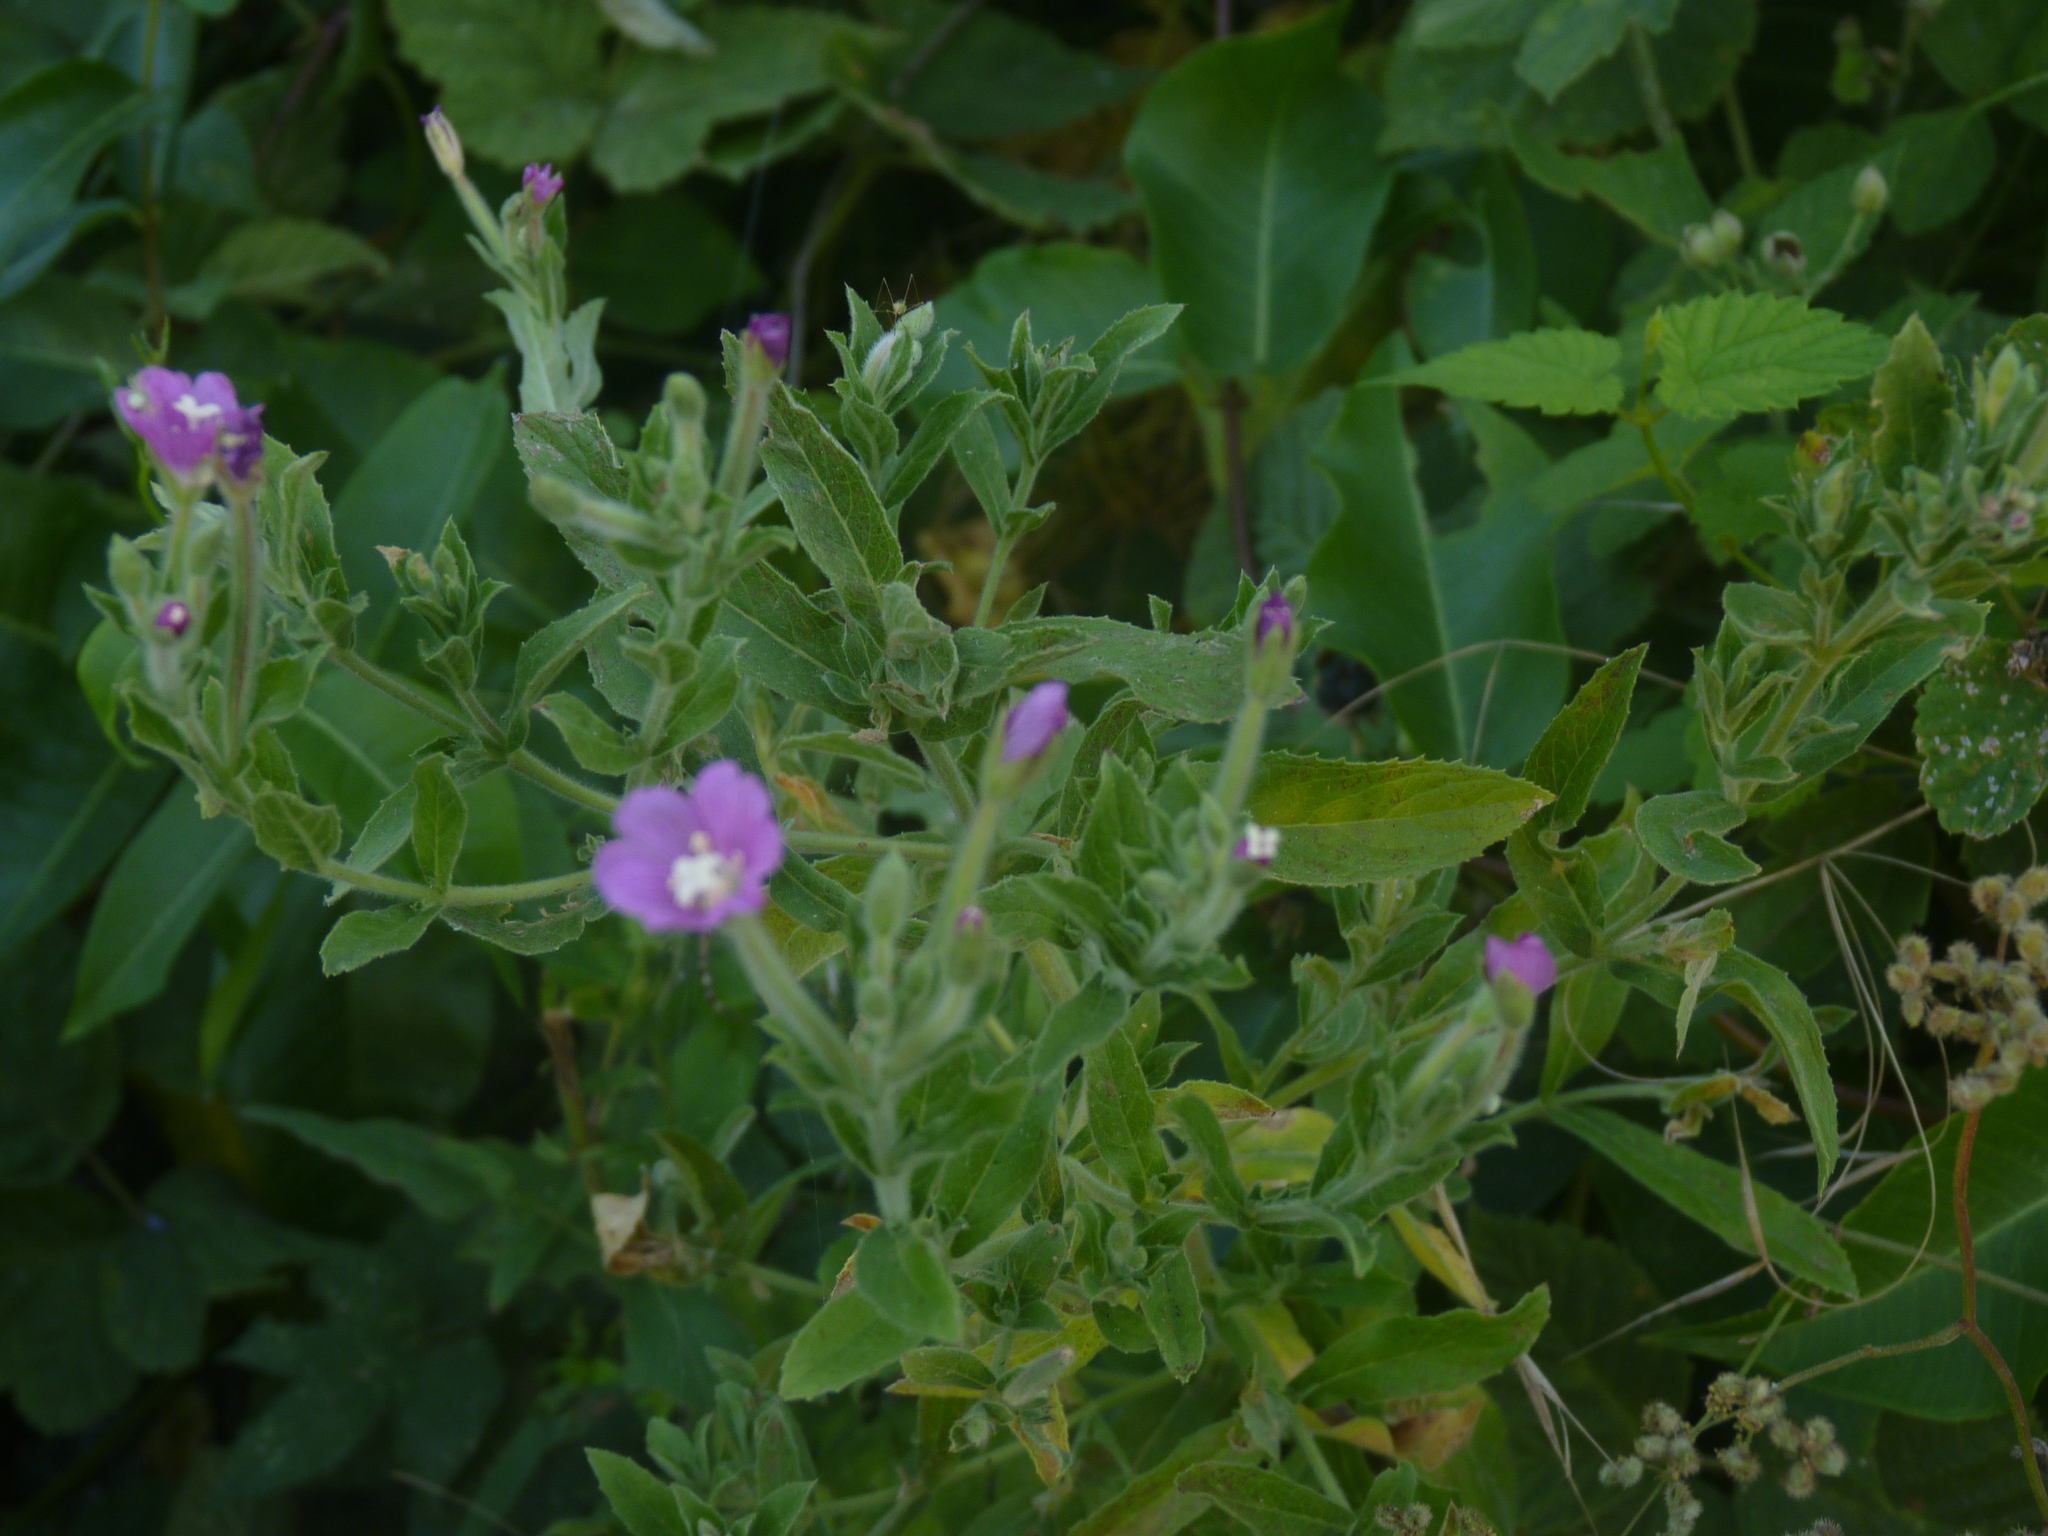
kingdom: Plantae
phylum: Tracheophyta
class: Magnoliopsida
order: Myrtales
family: Onagraceae
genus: Epilobium
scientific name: Epilobium hirsutum
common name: Great willowherb
